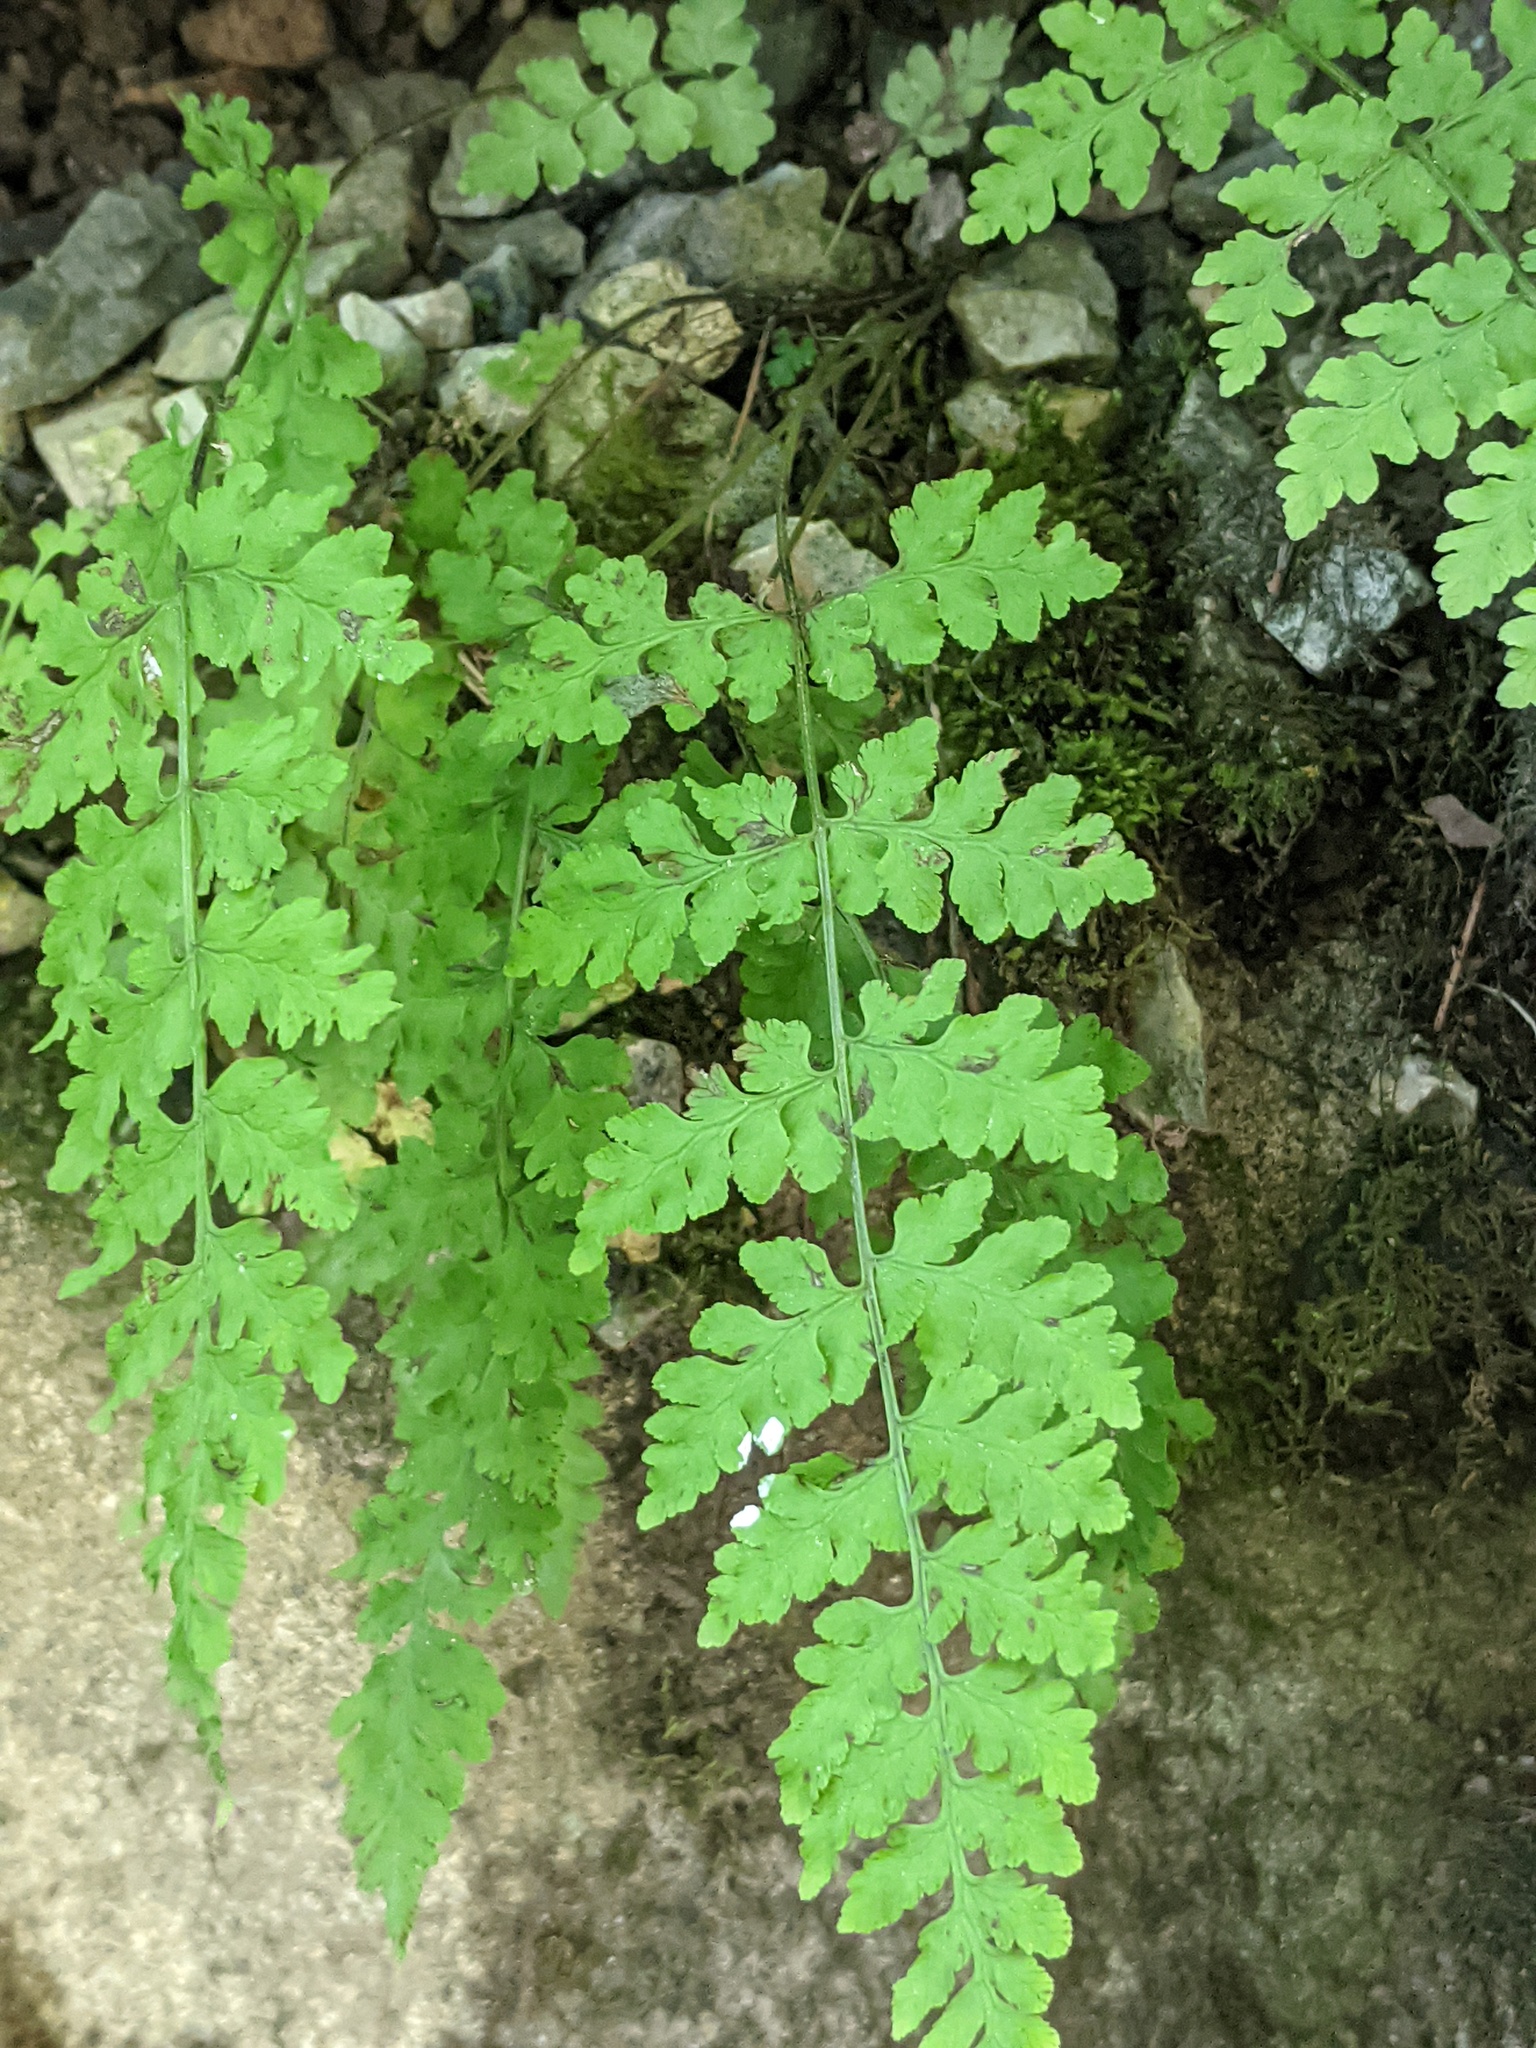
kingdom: Plantae
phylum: Tracheophyta
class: Polypodiopsida
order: Polypodiales
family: Cystopteridaceae
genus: Cystopteris
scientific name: Cystopteris tennesseensis
